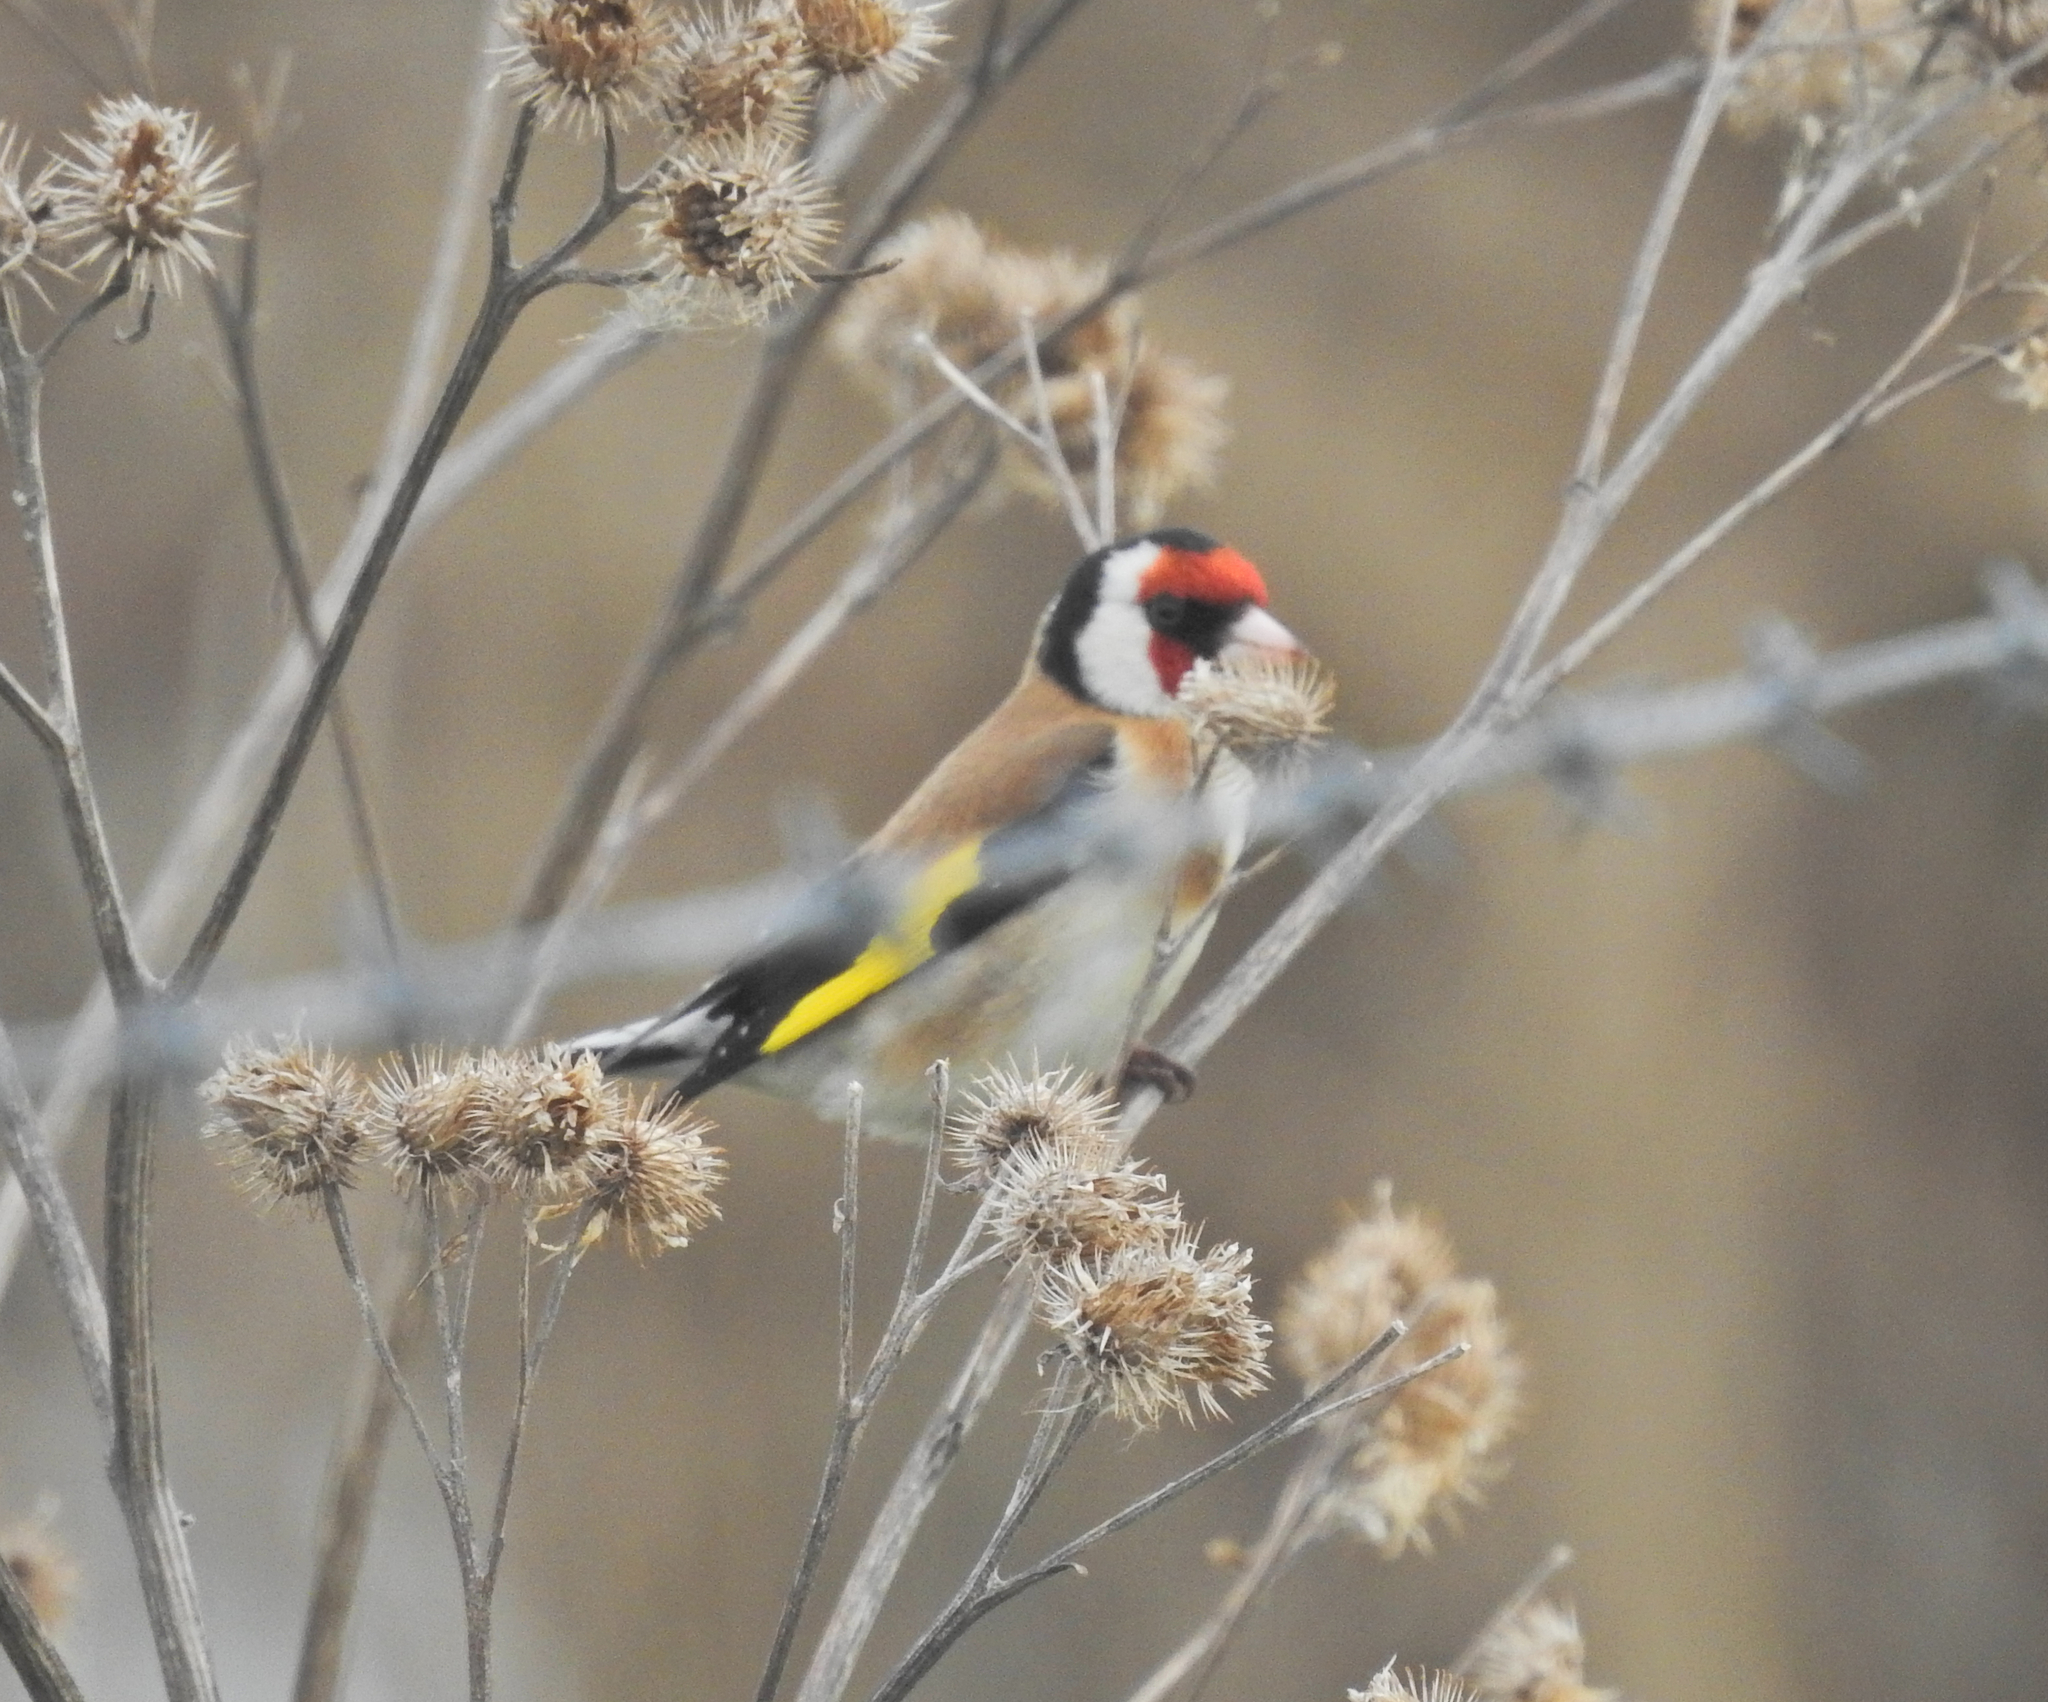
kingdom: Animalia
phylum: Chordata
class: Aves
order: Passeriformes
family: Fringillidae
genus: Carduelis
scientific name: Carduelis carduelis
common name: European goldfinch
